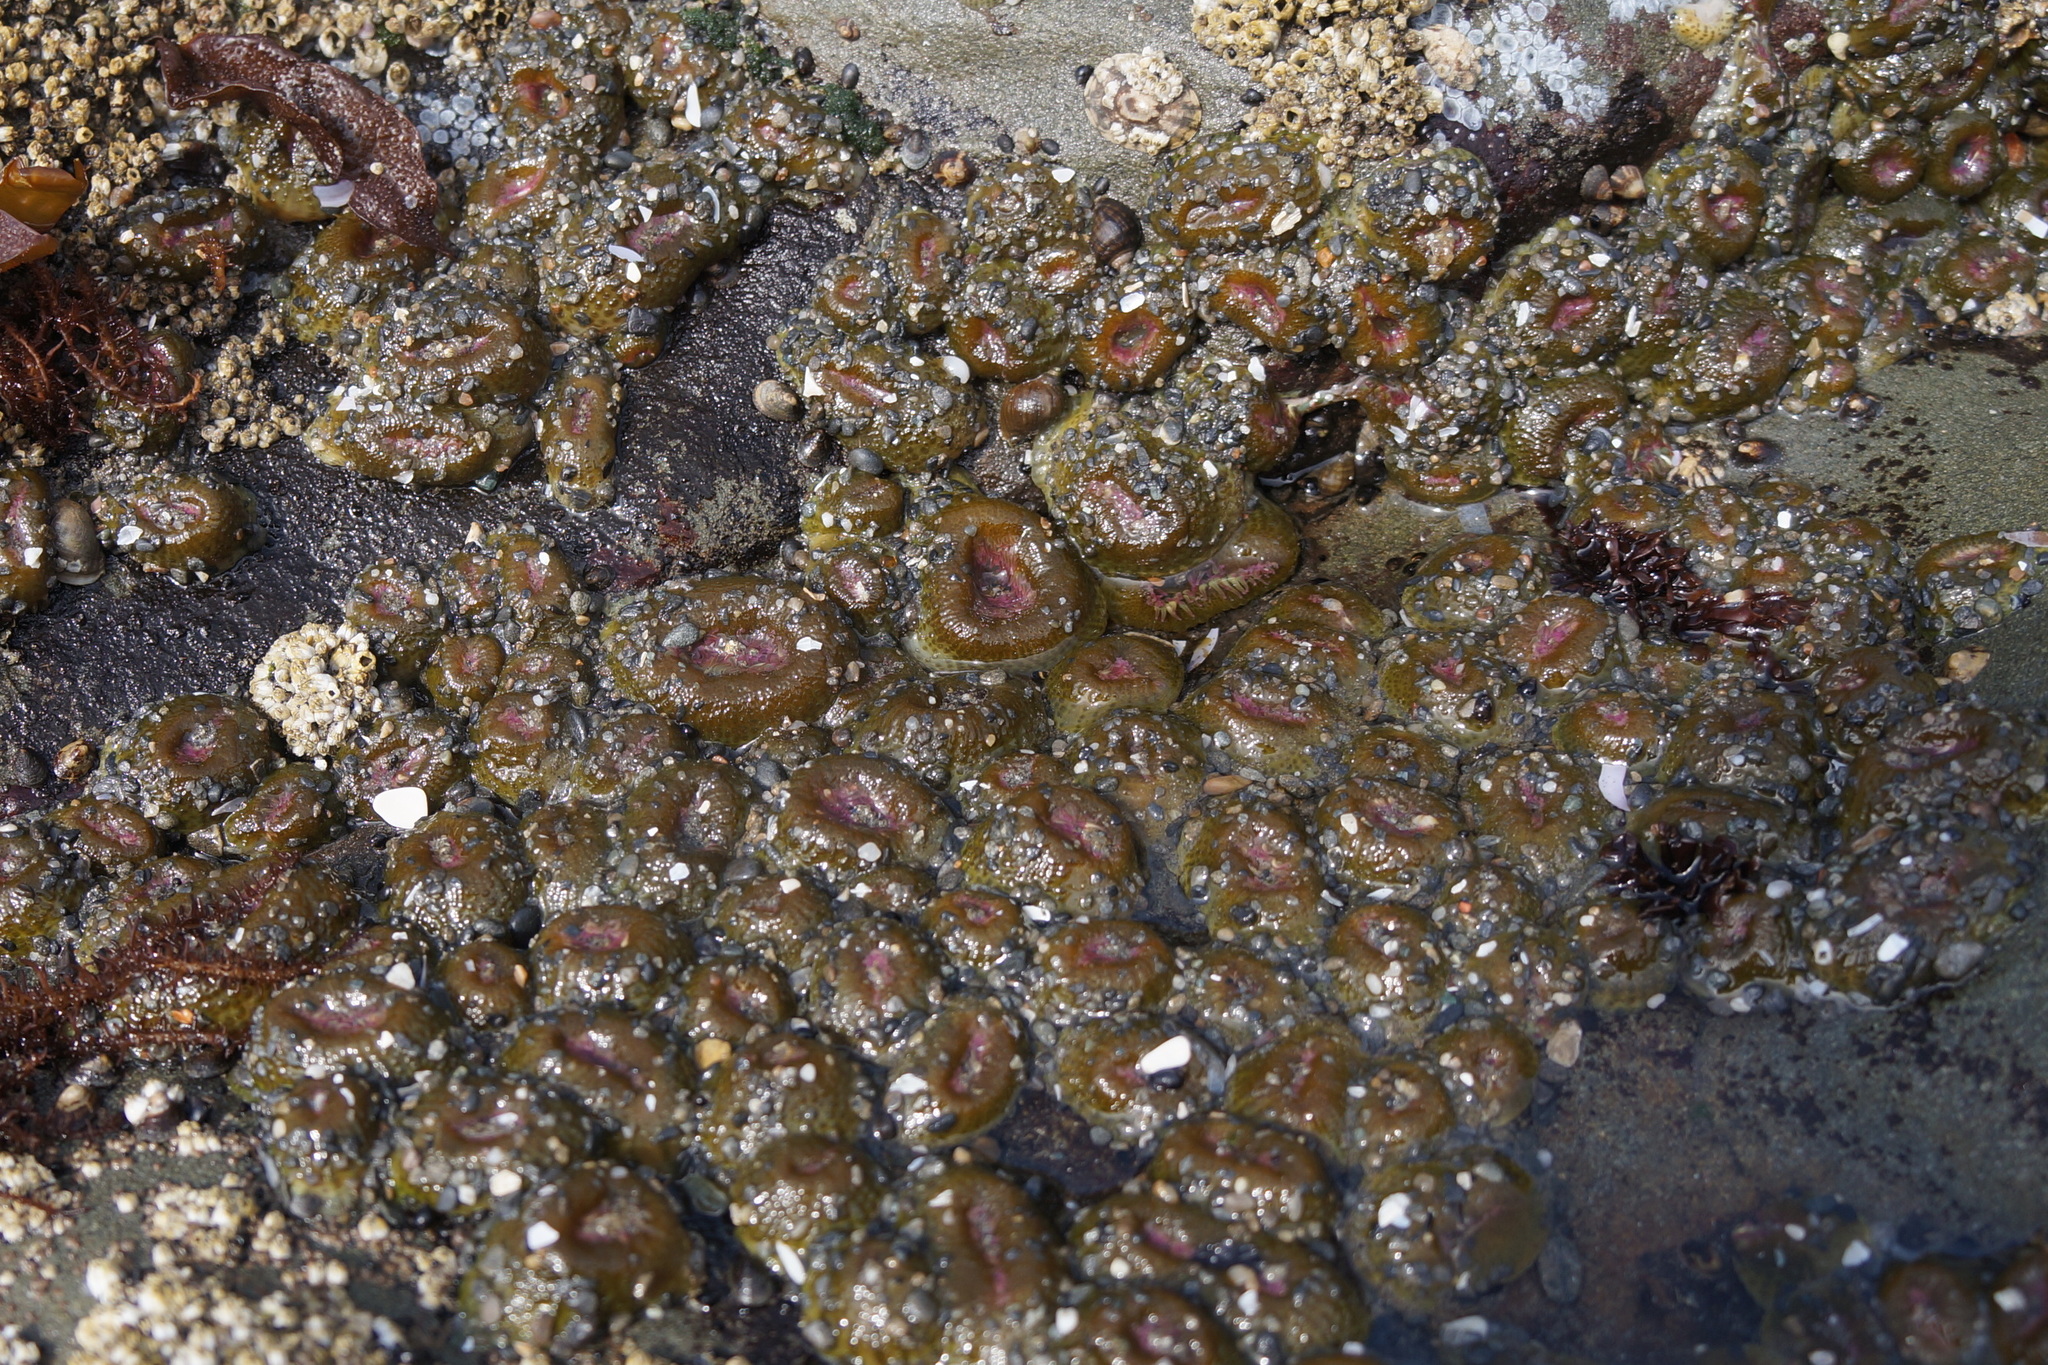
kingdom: Animalia
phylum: Cnidaria
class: Anthozoa
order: Actiniaria
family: Actiniidae
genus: Anthopleura
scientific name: Anthopleura elegantissima
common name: Clonal anemone
